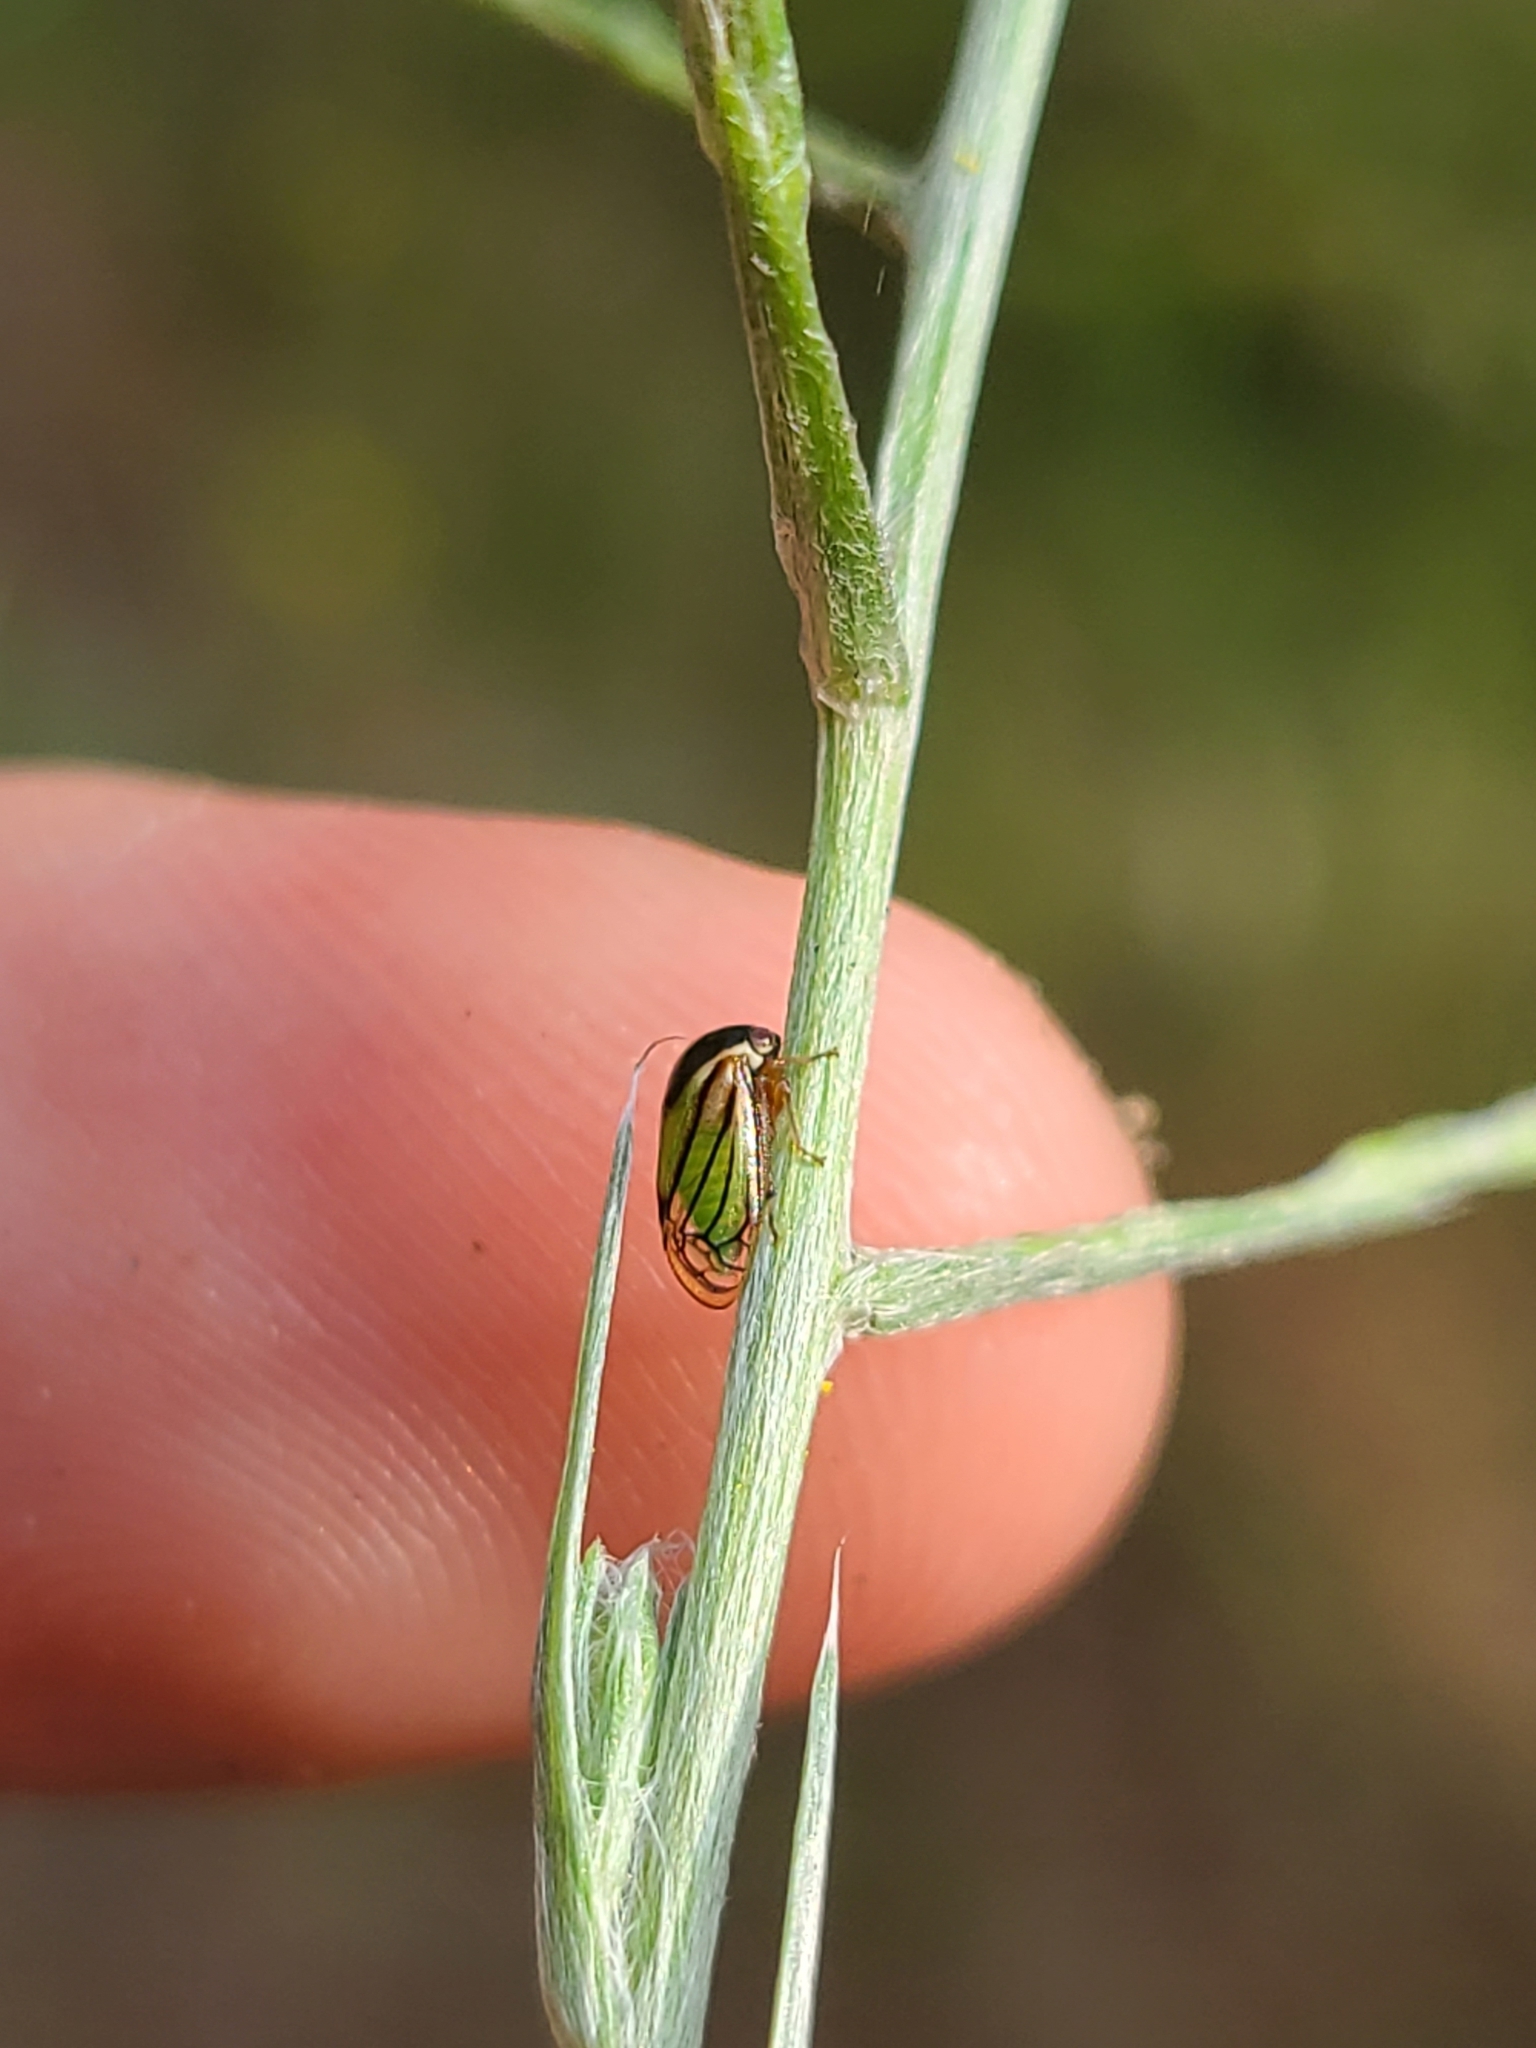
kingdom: Animalia
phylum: Arthropoda
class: Insecta
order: Hemiptera
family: Membracidae
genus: Acutalis
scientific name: Acutalis tartarea
